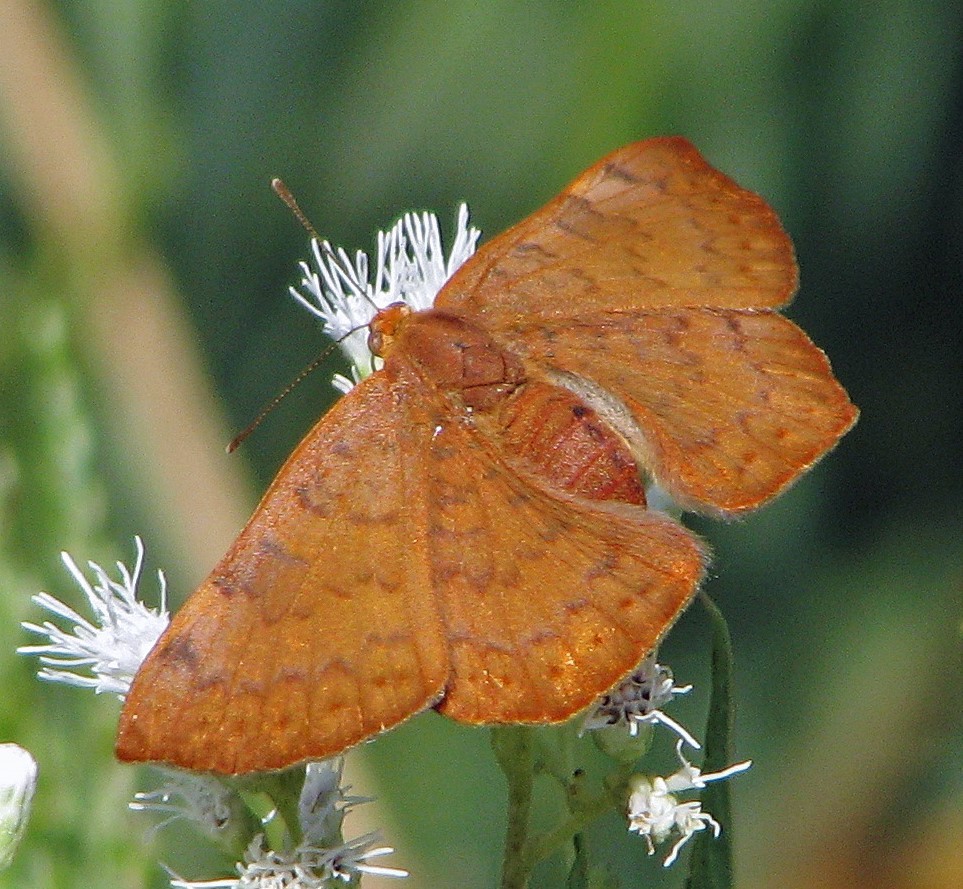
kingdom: Animalia
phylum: Arthropoda
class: Insecta
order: Lepidoptera
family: Lycaenidae
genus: Emesis
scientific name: Emesis russula
